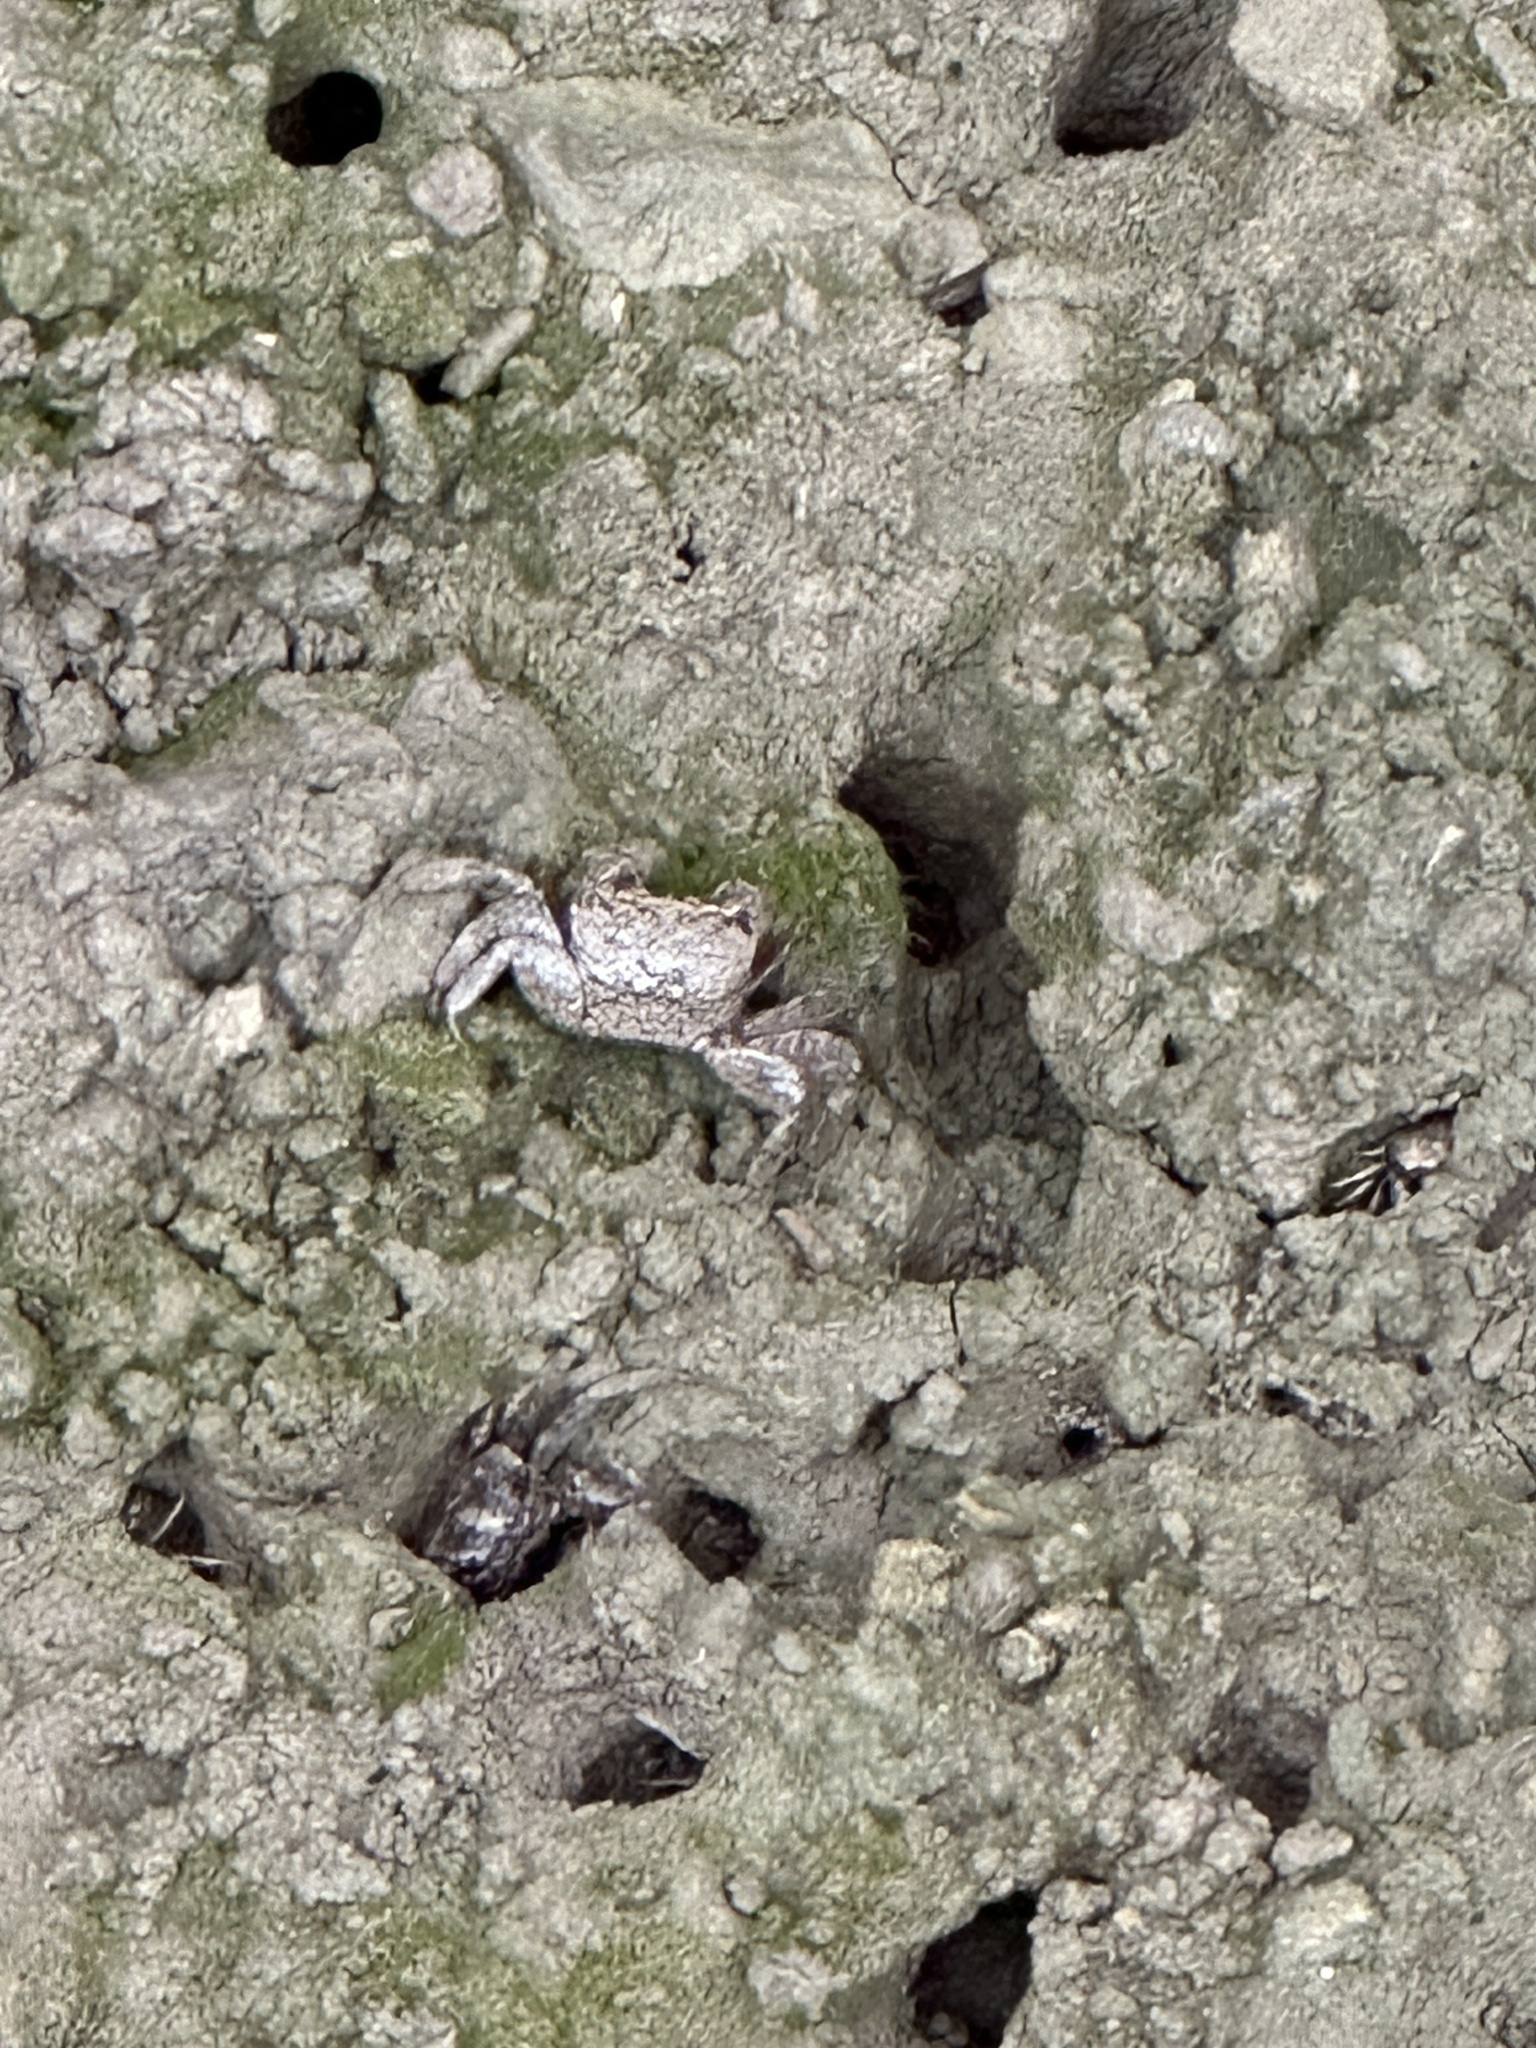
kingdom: Animalia
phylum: Arthropoda
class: Malacostraca
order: Decapoda
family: Sesarmidae
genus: Parasesarma
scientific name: Parasesarma affine
